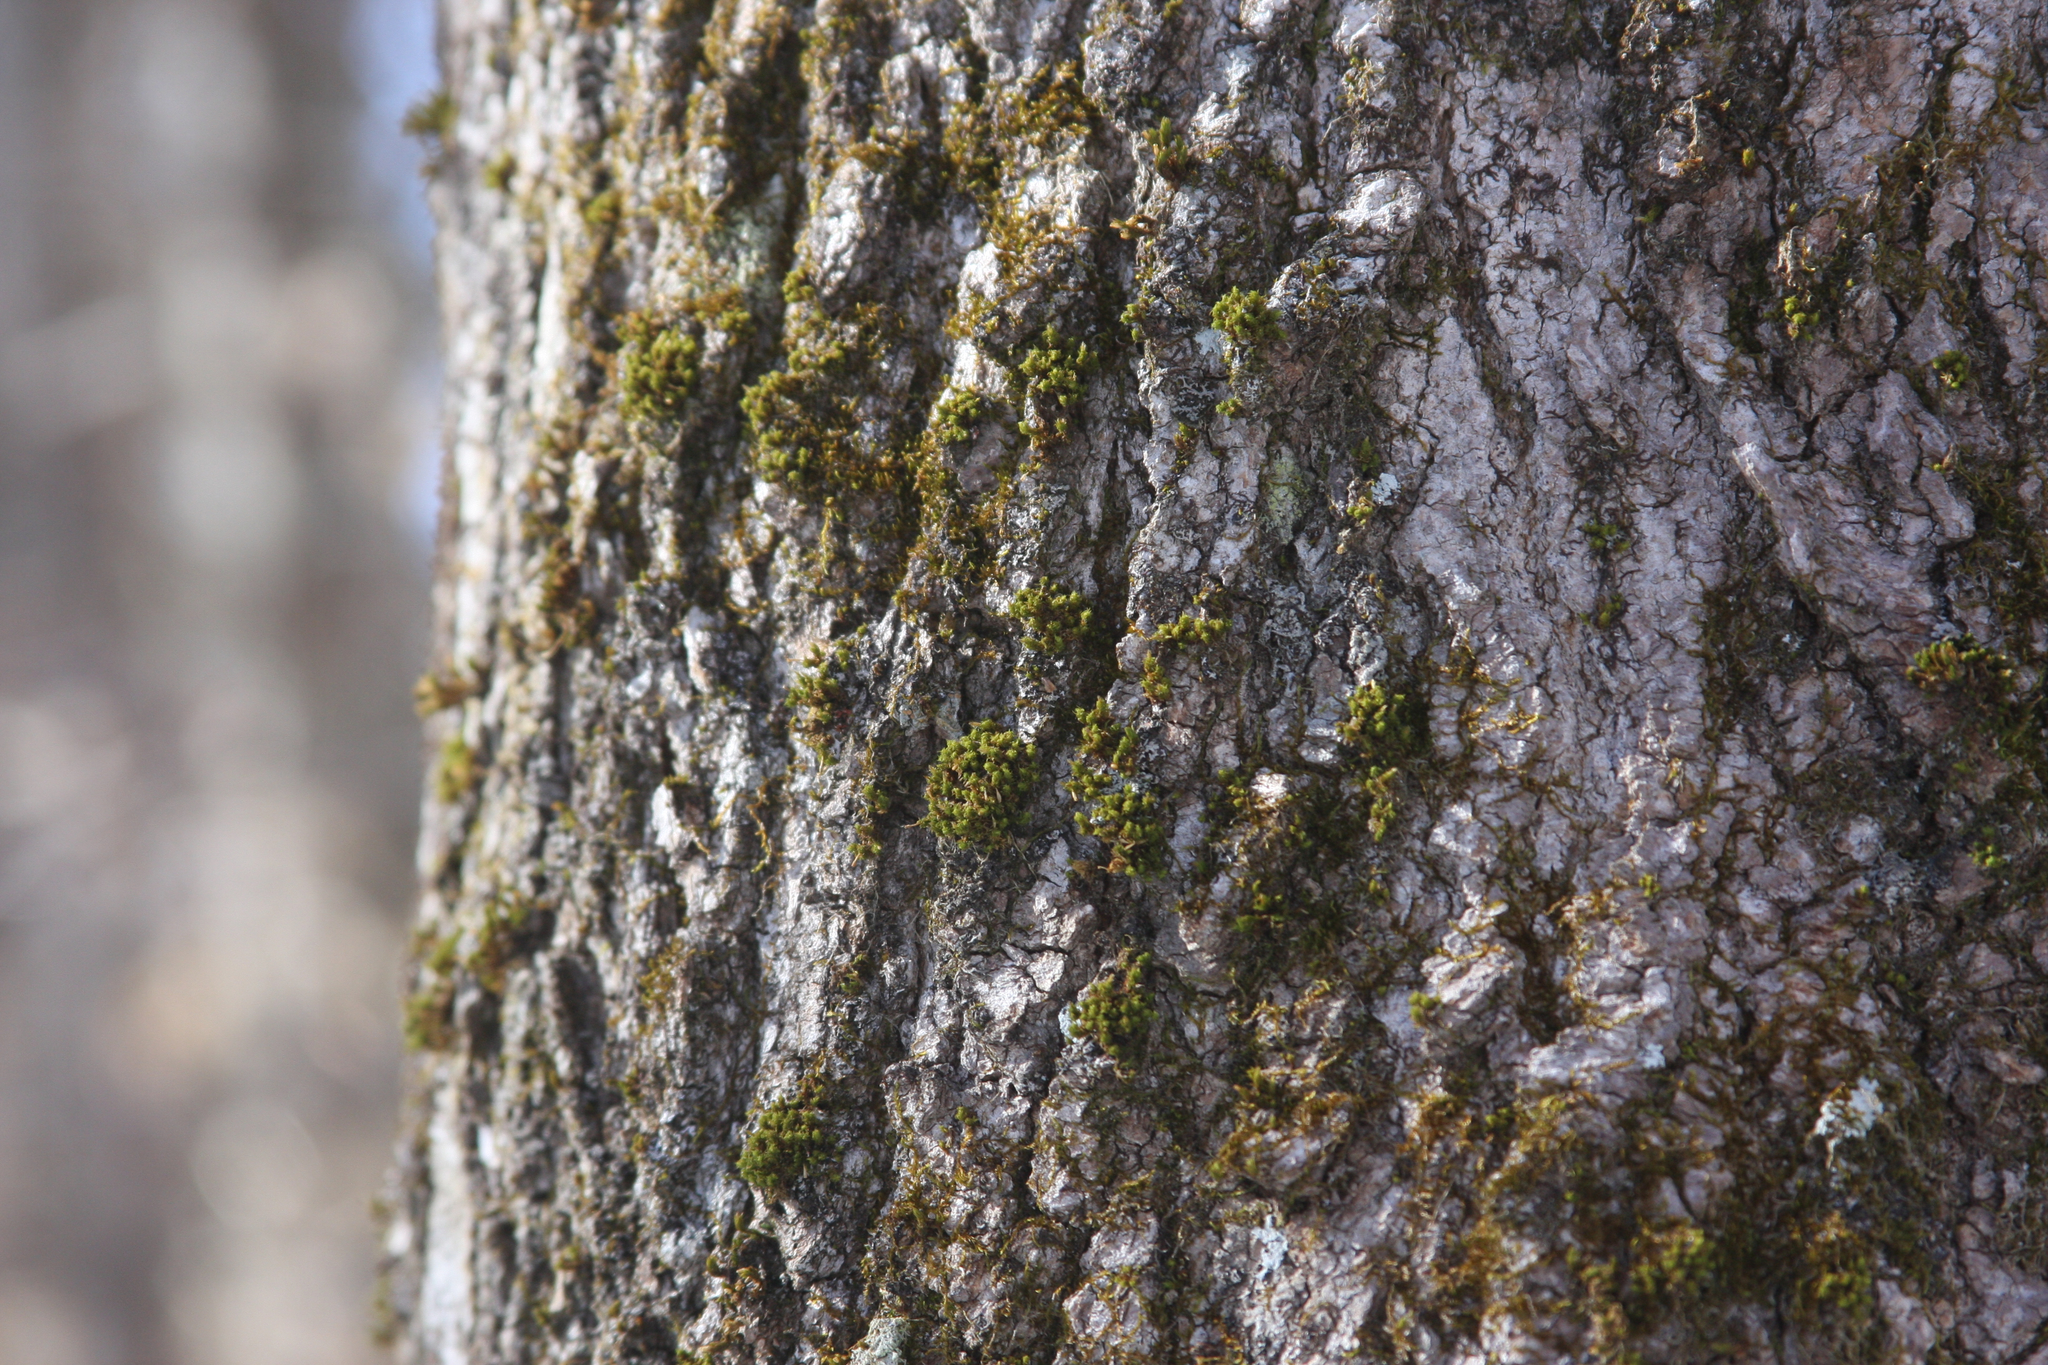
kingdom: Plantae
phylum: Bryophyta
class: Bryopsida
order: Orthotrichales
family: Orthotrichaceae
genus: Ulota
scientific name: Ulota crispa
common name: Crisped pincushion moss
